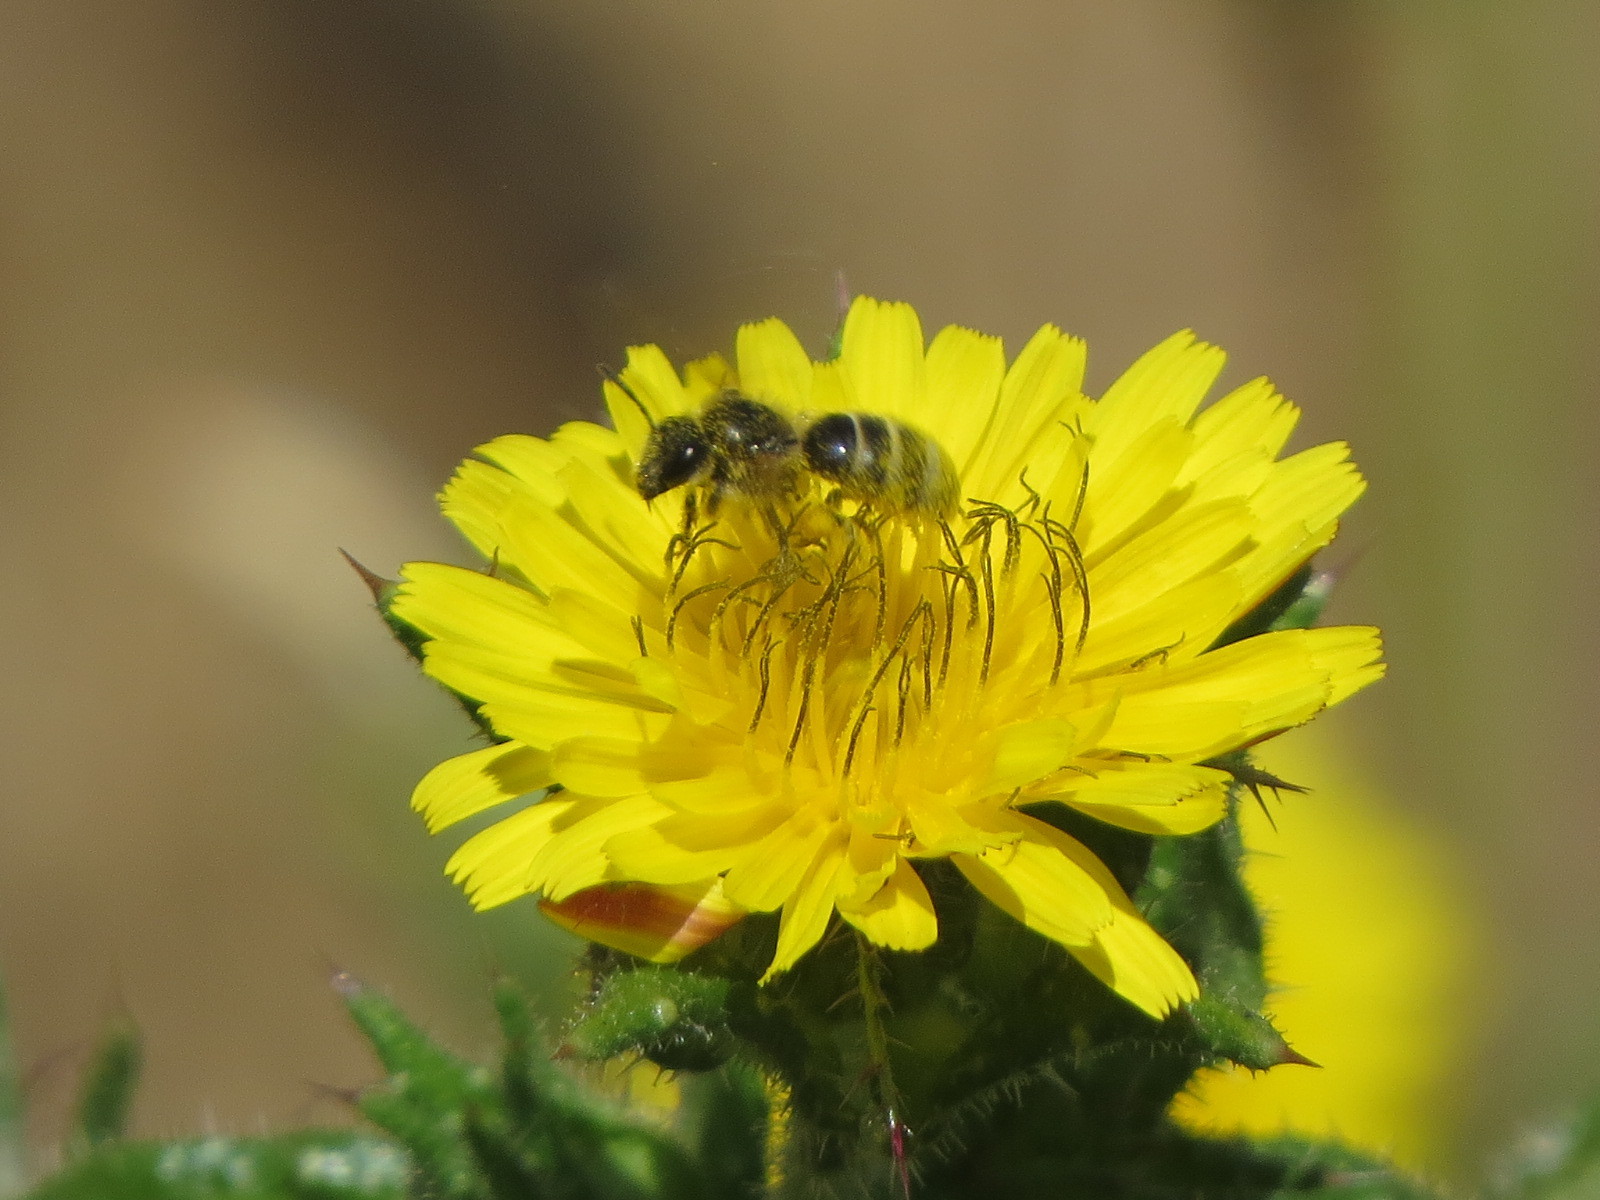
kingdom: Animalia
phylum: Arthropoda
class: Insecta
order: Hymenoptera
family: Halictidae
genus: Lasioglossum
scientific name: Lasioglossum titusi
